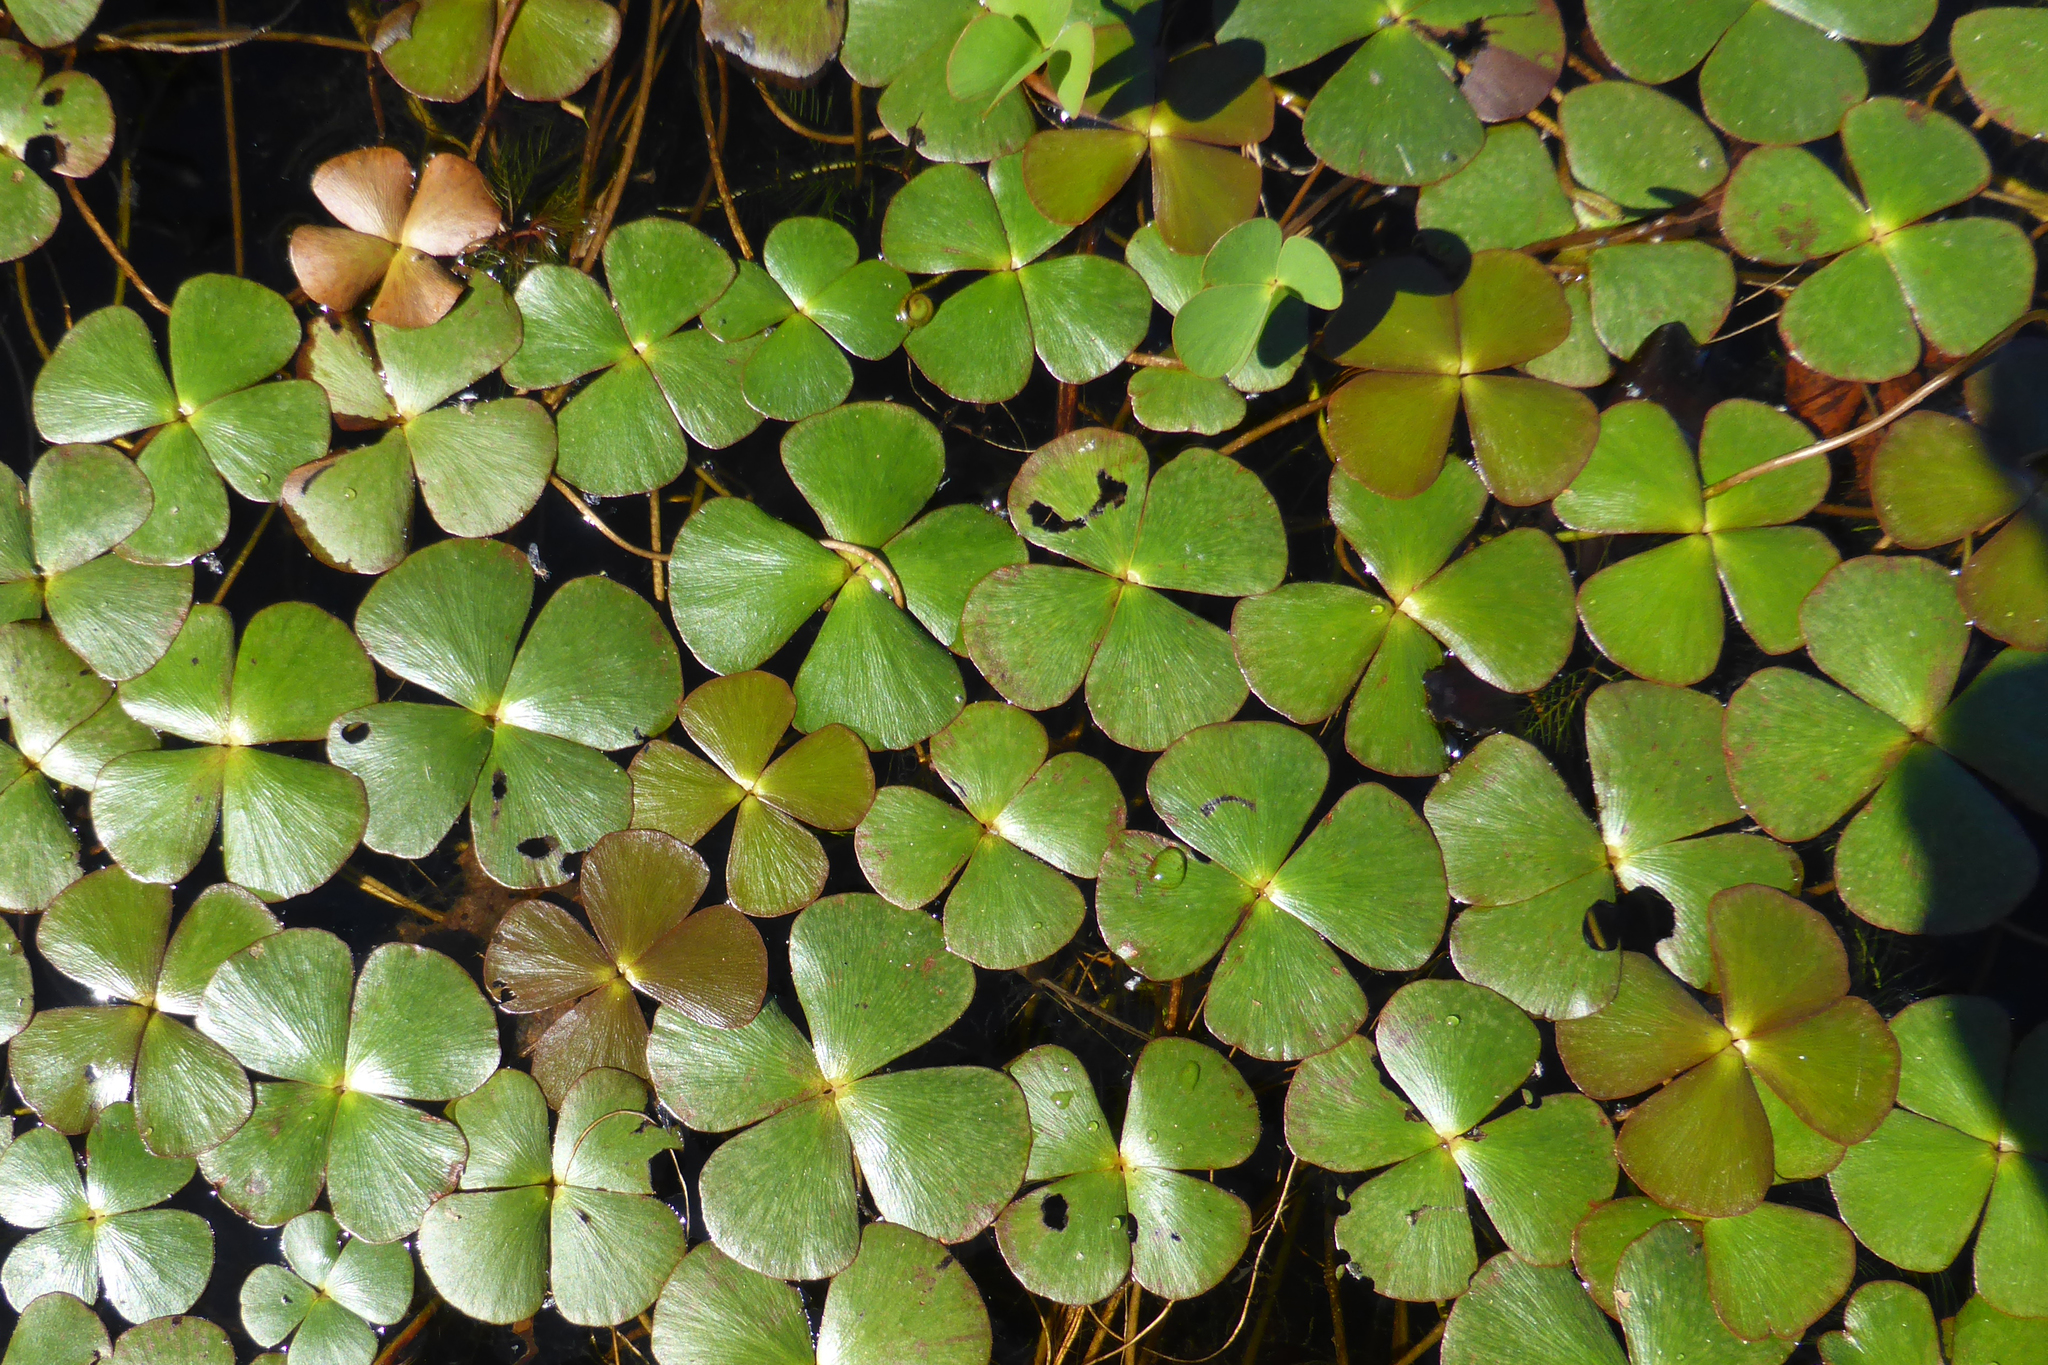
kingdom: Plantae
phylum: Tracheophyta
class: Polypodiopsida
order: Salviniales
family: Marsileaceae
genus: Marsilea
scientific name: Marsilea quadrifolia
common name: Water shamrock
